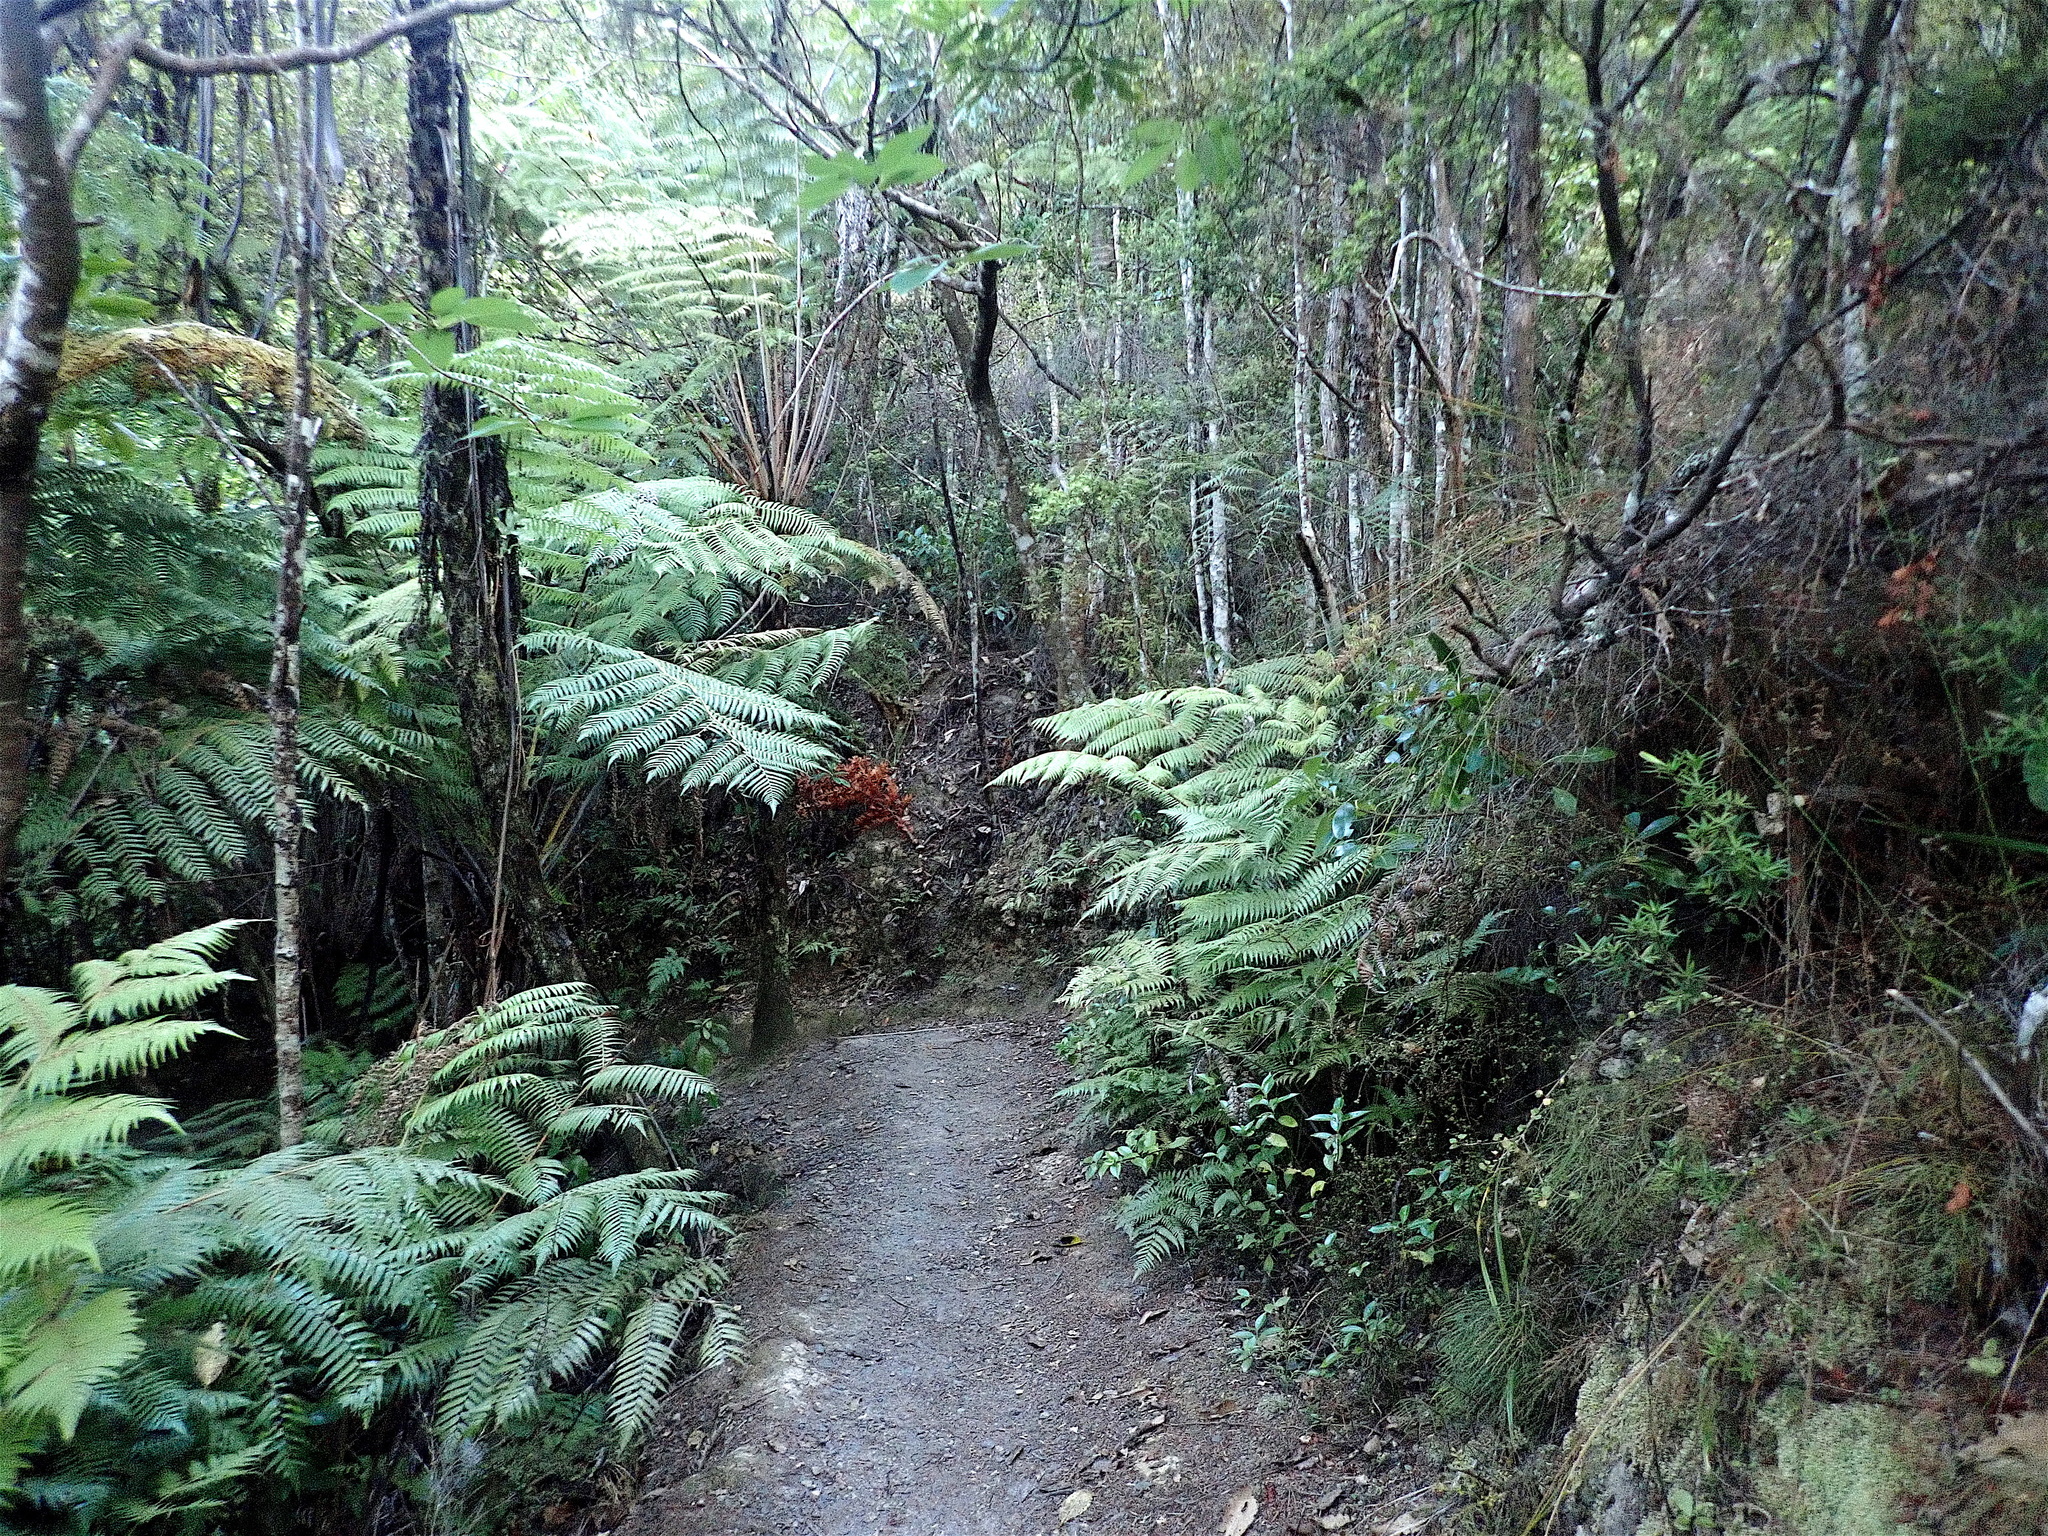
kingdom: Plantae
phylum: Tracheophyta
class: Polypodiopsida
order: Cyatheales
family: Cyatheaceae
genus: Alsophila
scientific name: Alsophila dealbata
